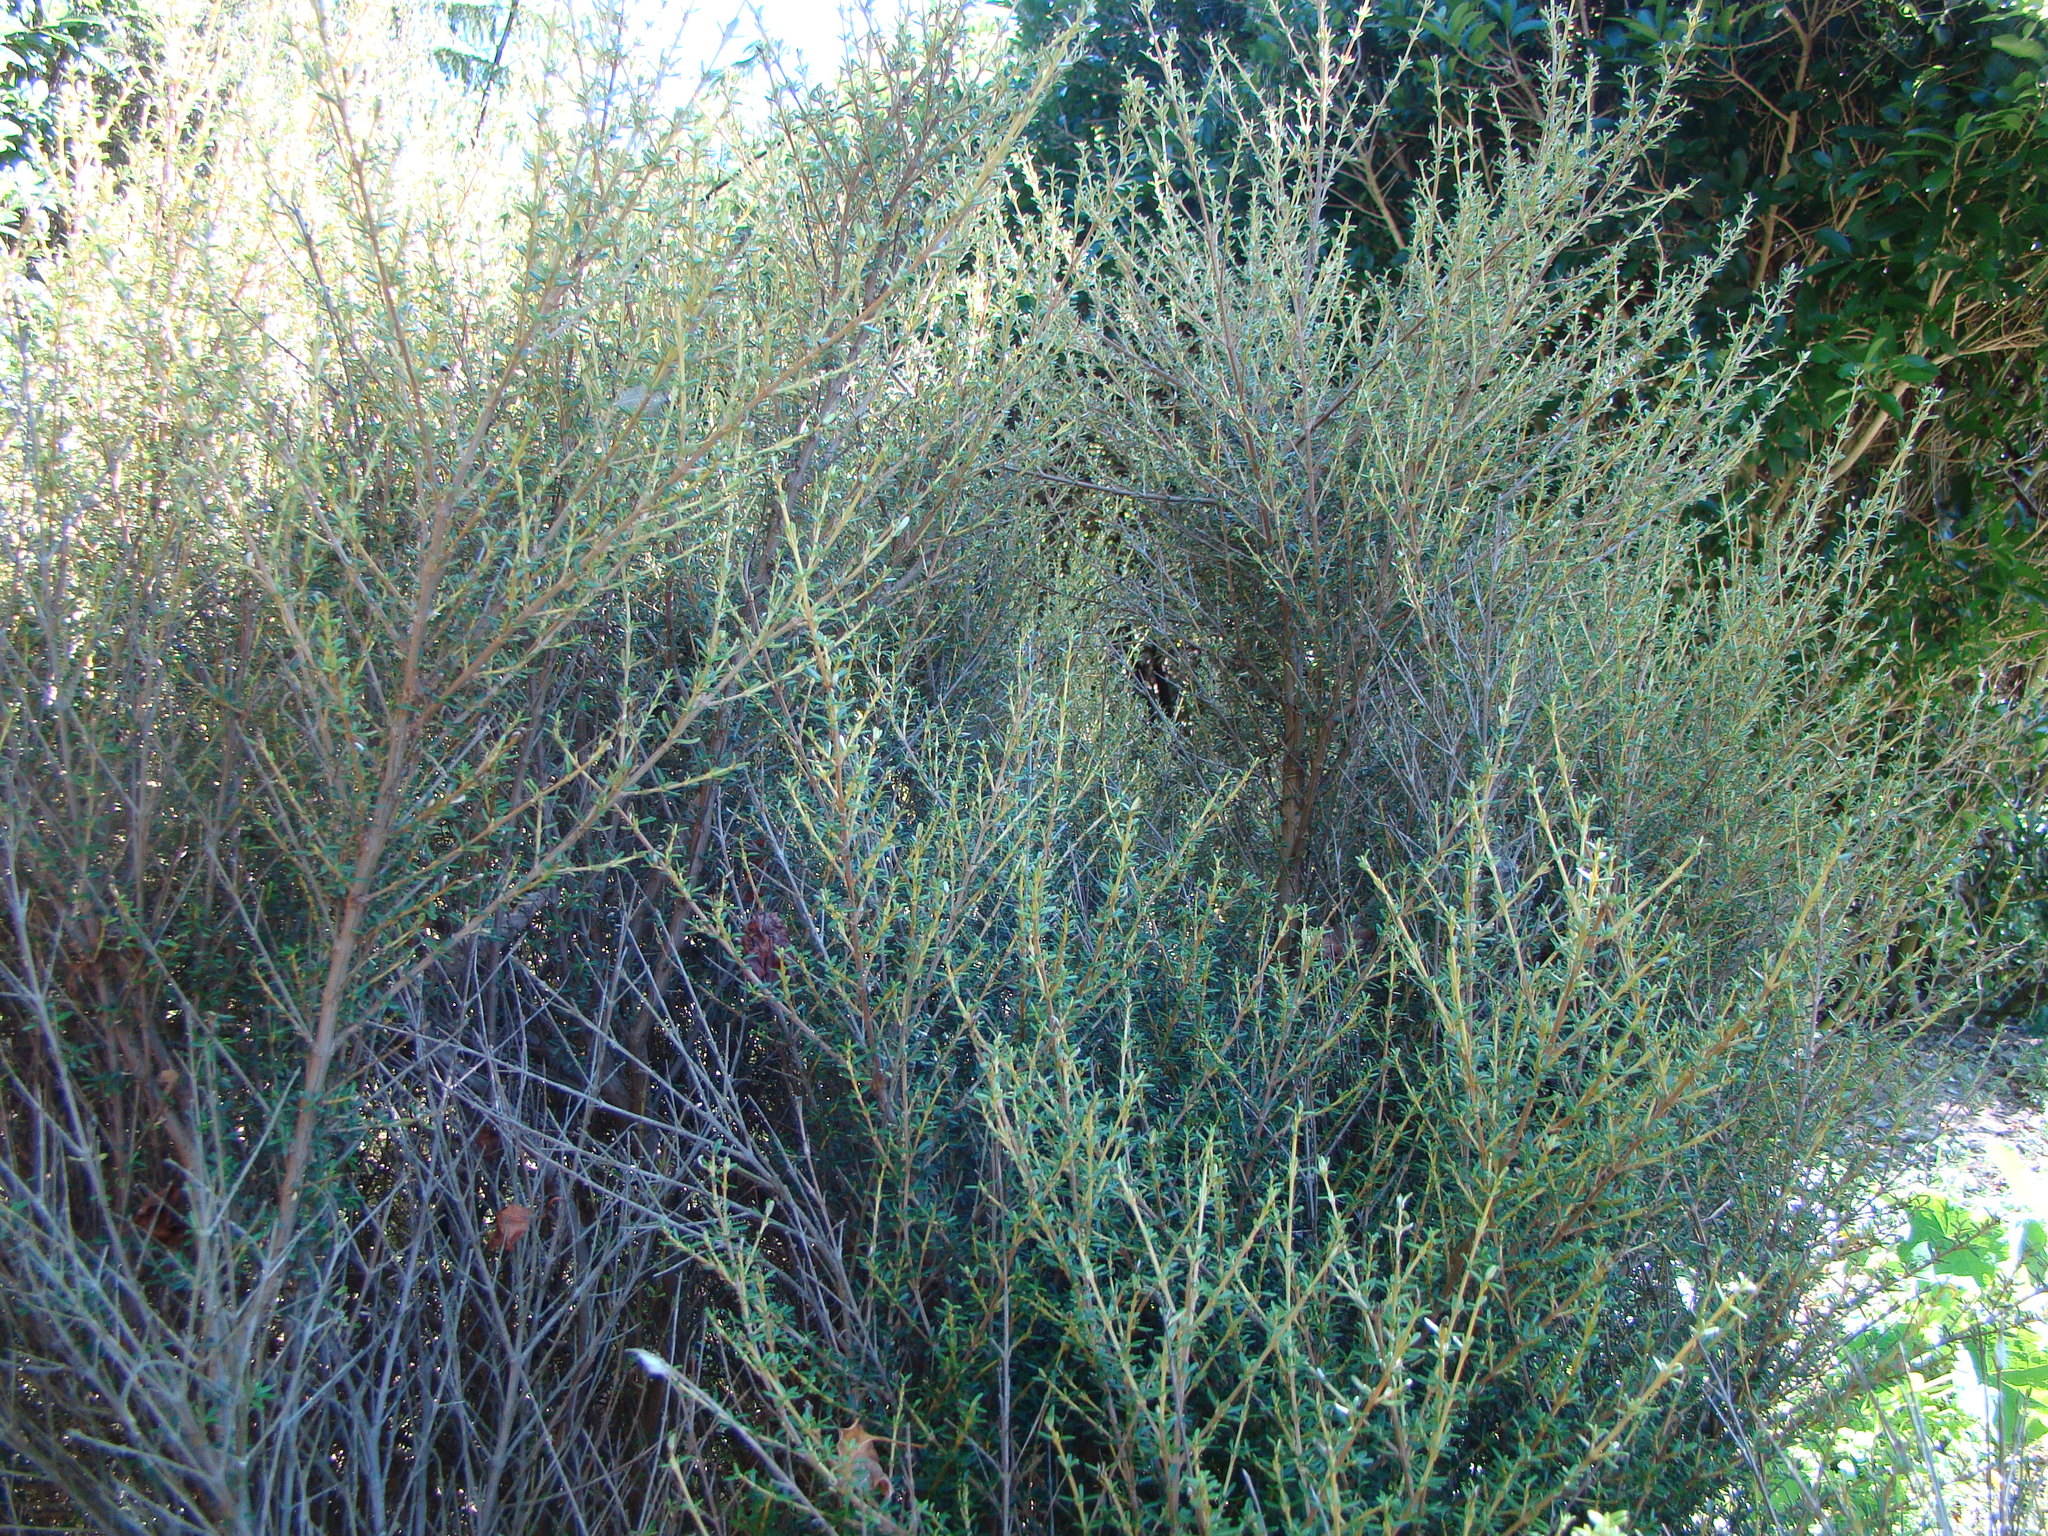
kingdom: Plantae
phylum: Tracheophyta
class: Magnoliopsida
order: Asterales
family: Asteraceae
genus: Olearia
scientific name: Olearia solandri
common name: Coastal daisybush
